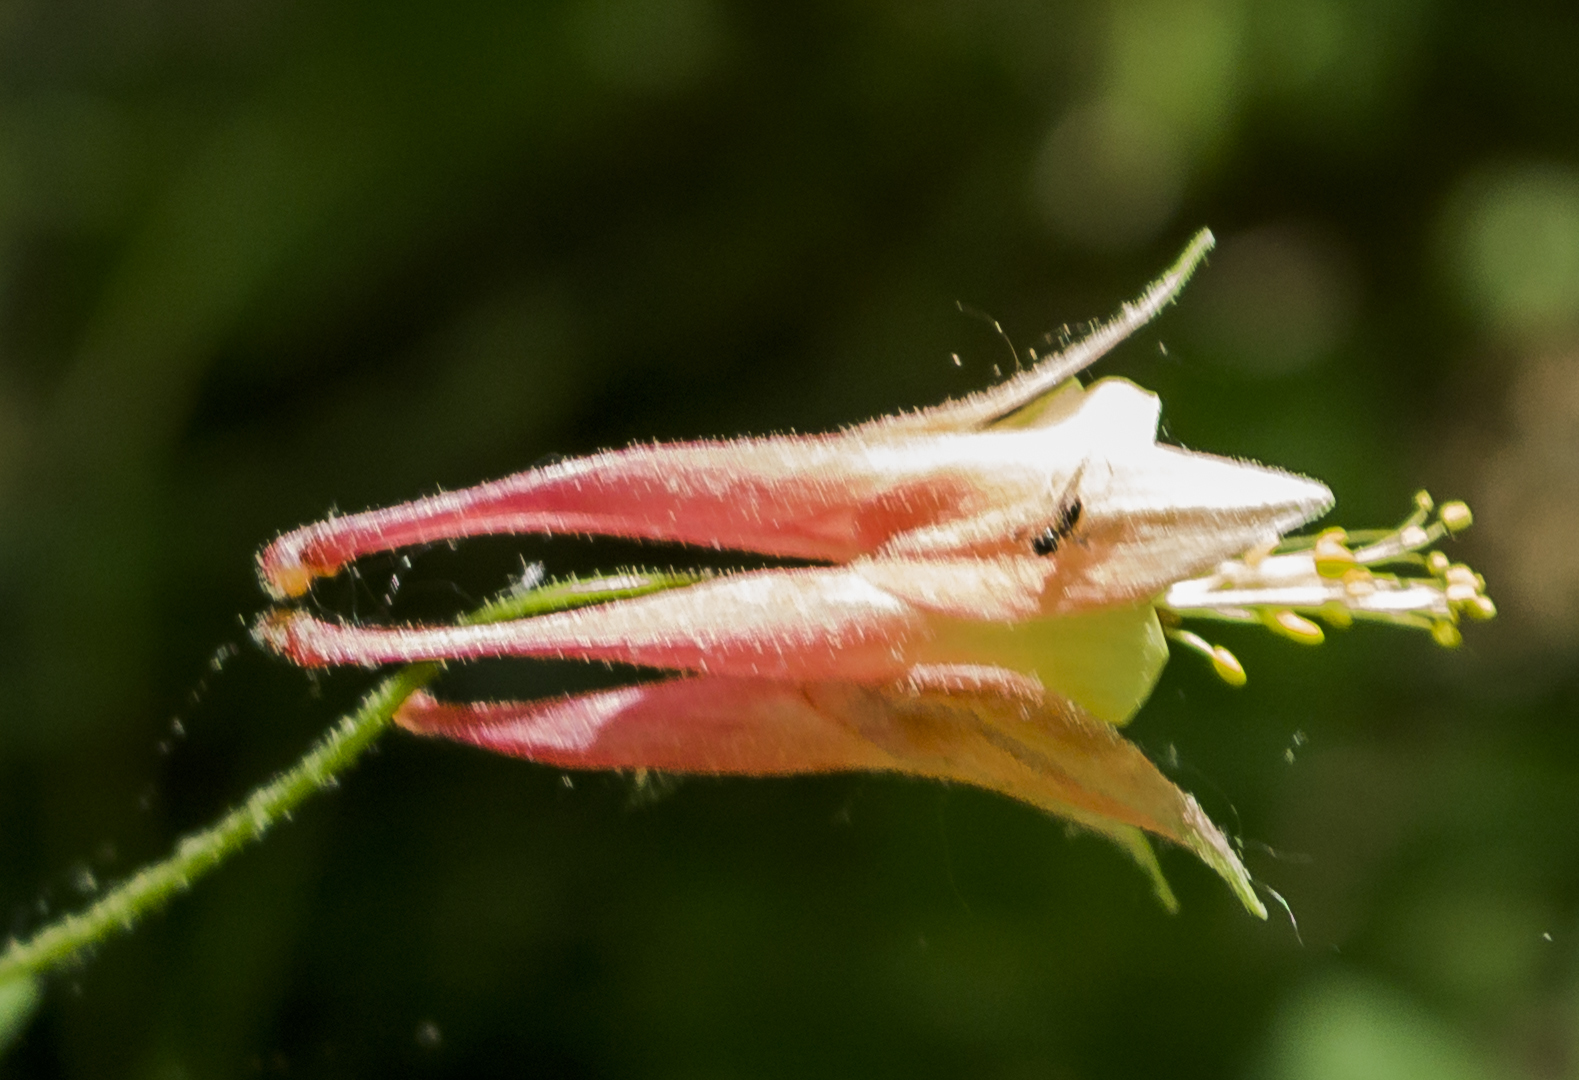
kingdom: Plantae
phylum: Tracheophyta
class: Magnoliopsida
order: Ranunculales
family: Ranunculaceae
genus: Aquilegia
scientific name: Aquilegia canadensis
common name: American columbine
